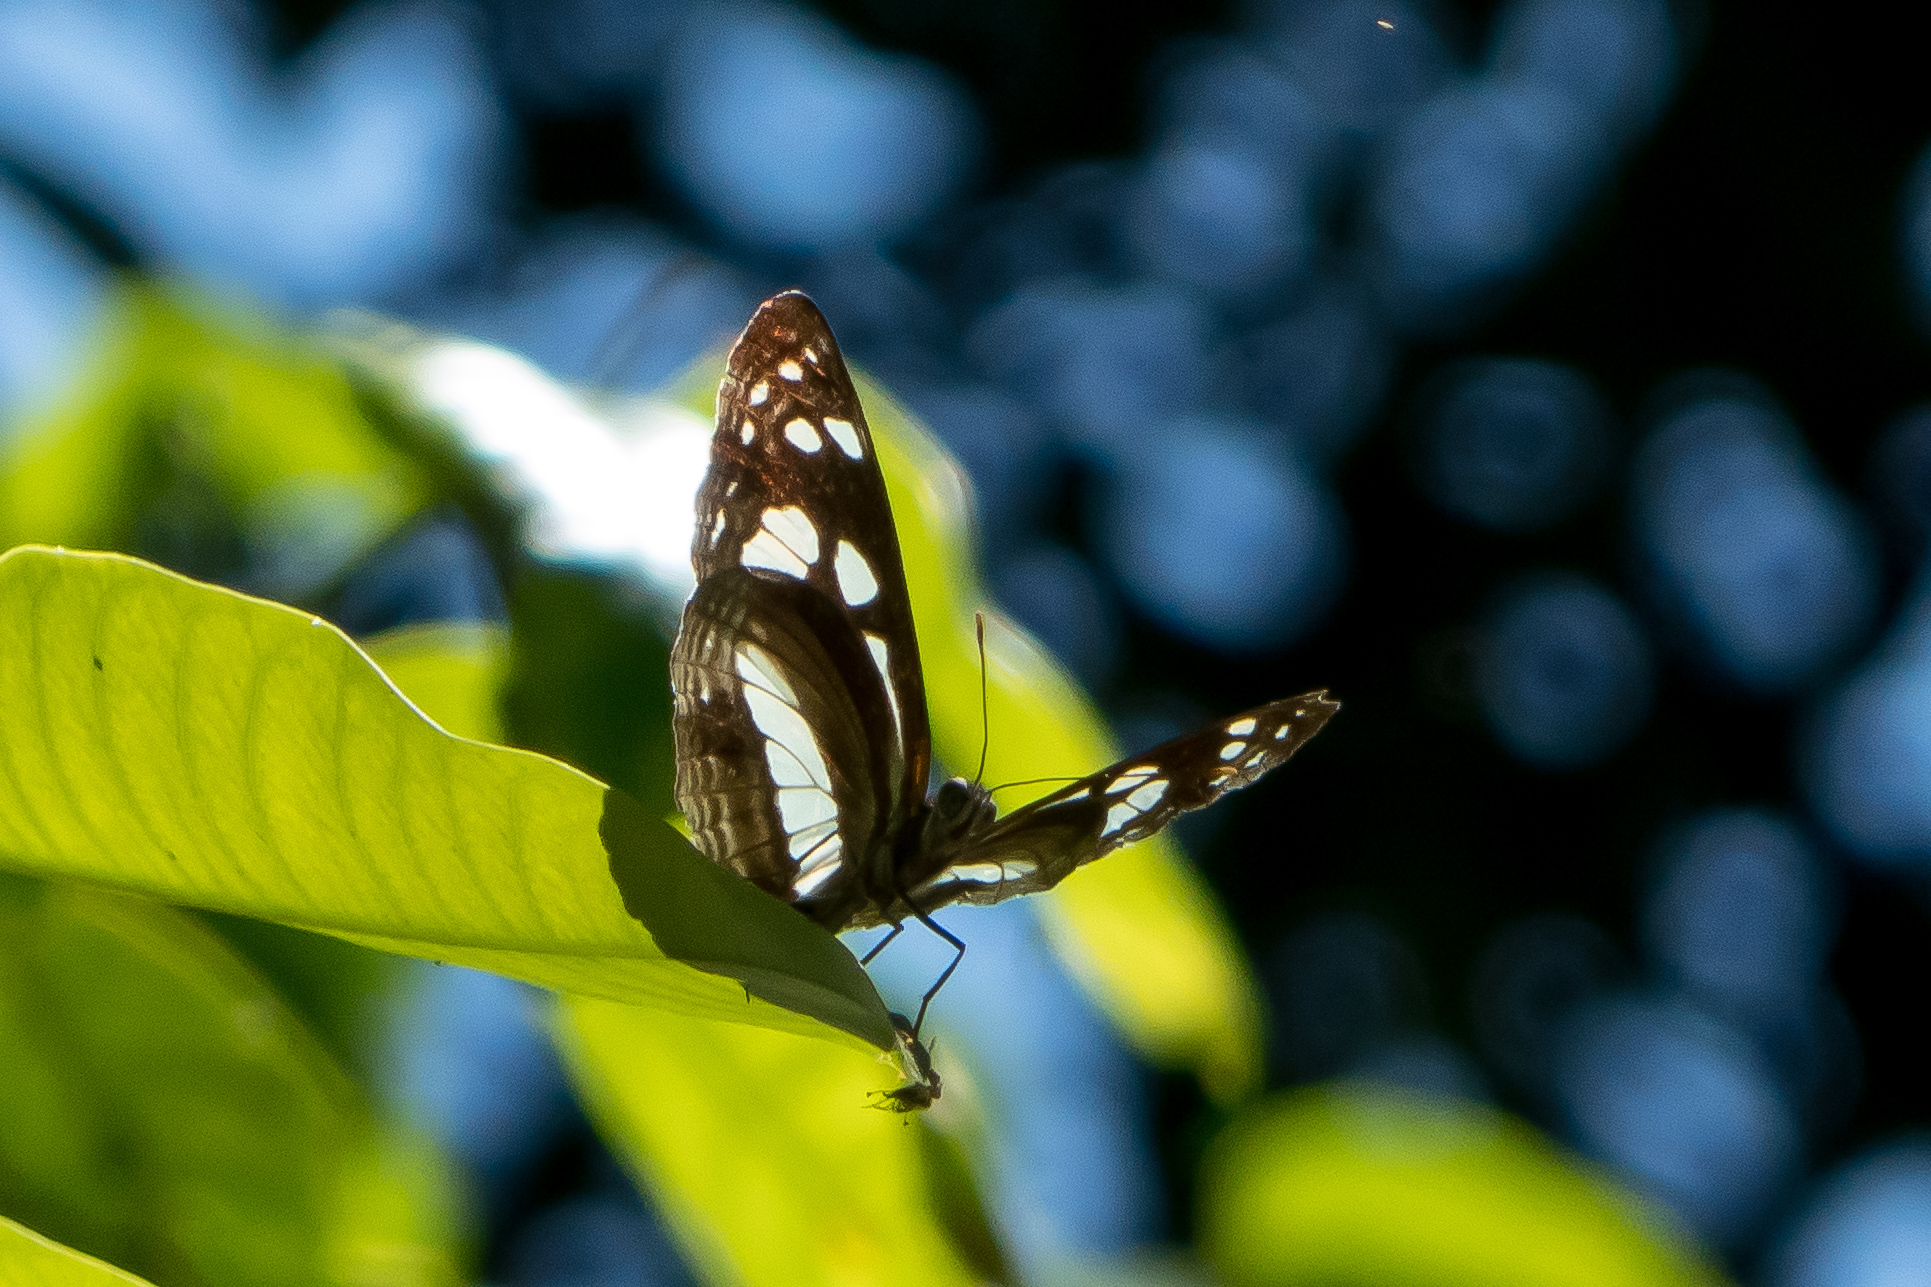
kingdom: Animalia
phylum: Arthropoda
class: Insecta
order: Lepidoptera
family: Nymphalidae
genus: Phaedyma
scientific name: Phaedyma shepherdi
